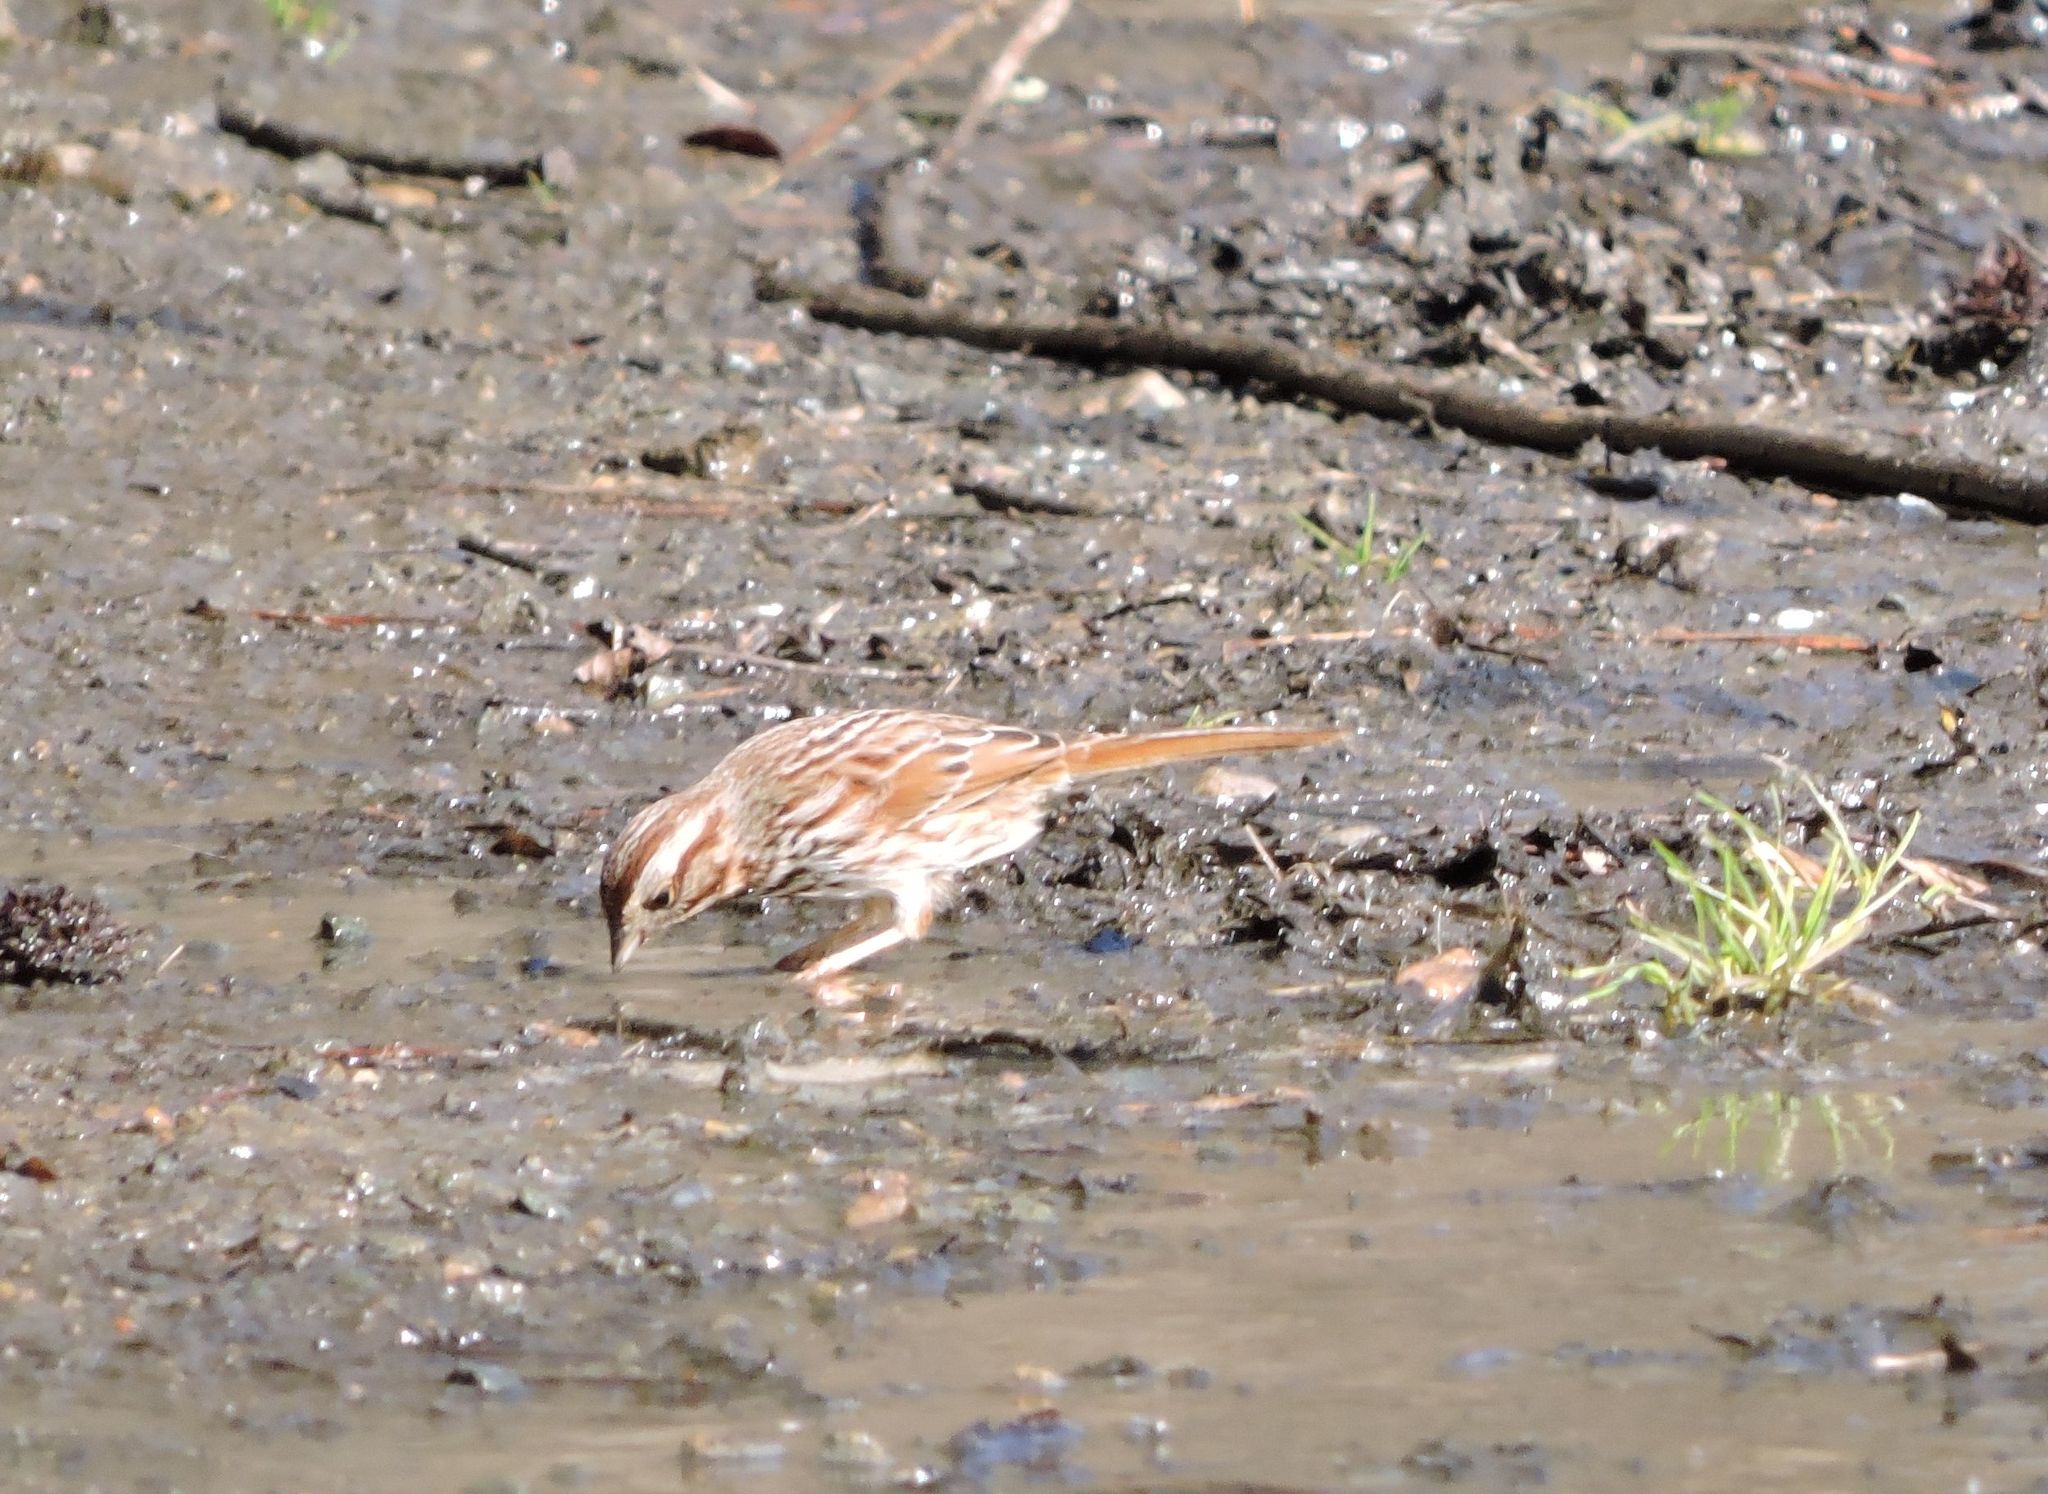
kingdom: Animalia
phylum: Chordata
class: Aves
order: Passeriformes
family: Passerellidae
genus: Melospiza
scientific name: Melospiza melodia
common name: Song sparrow
